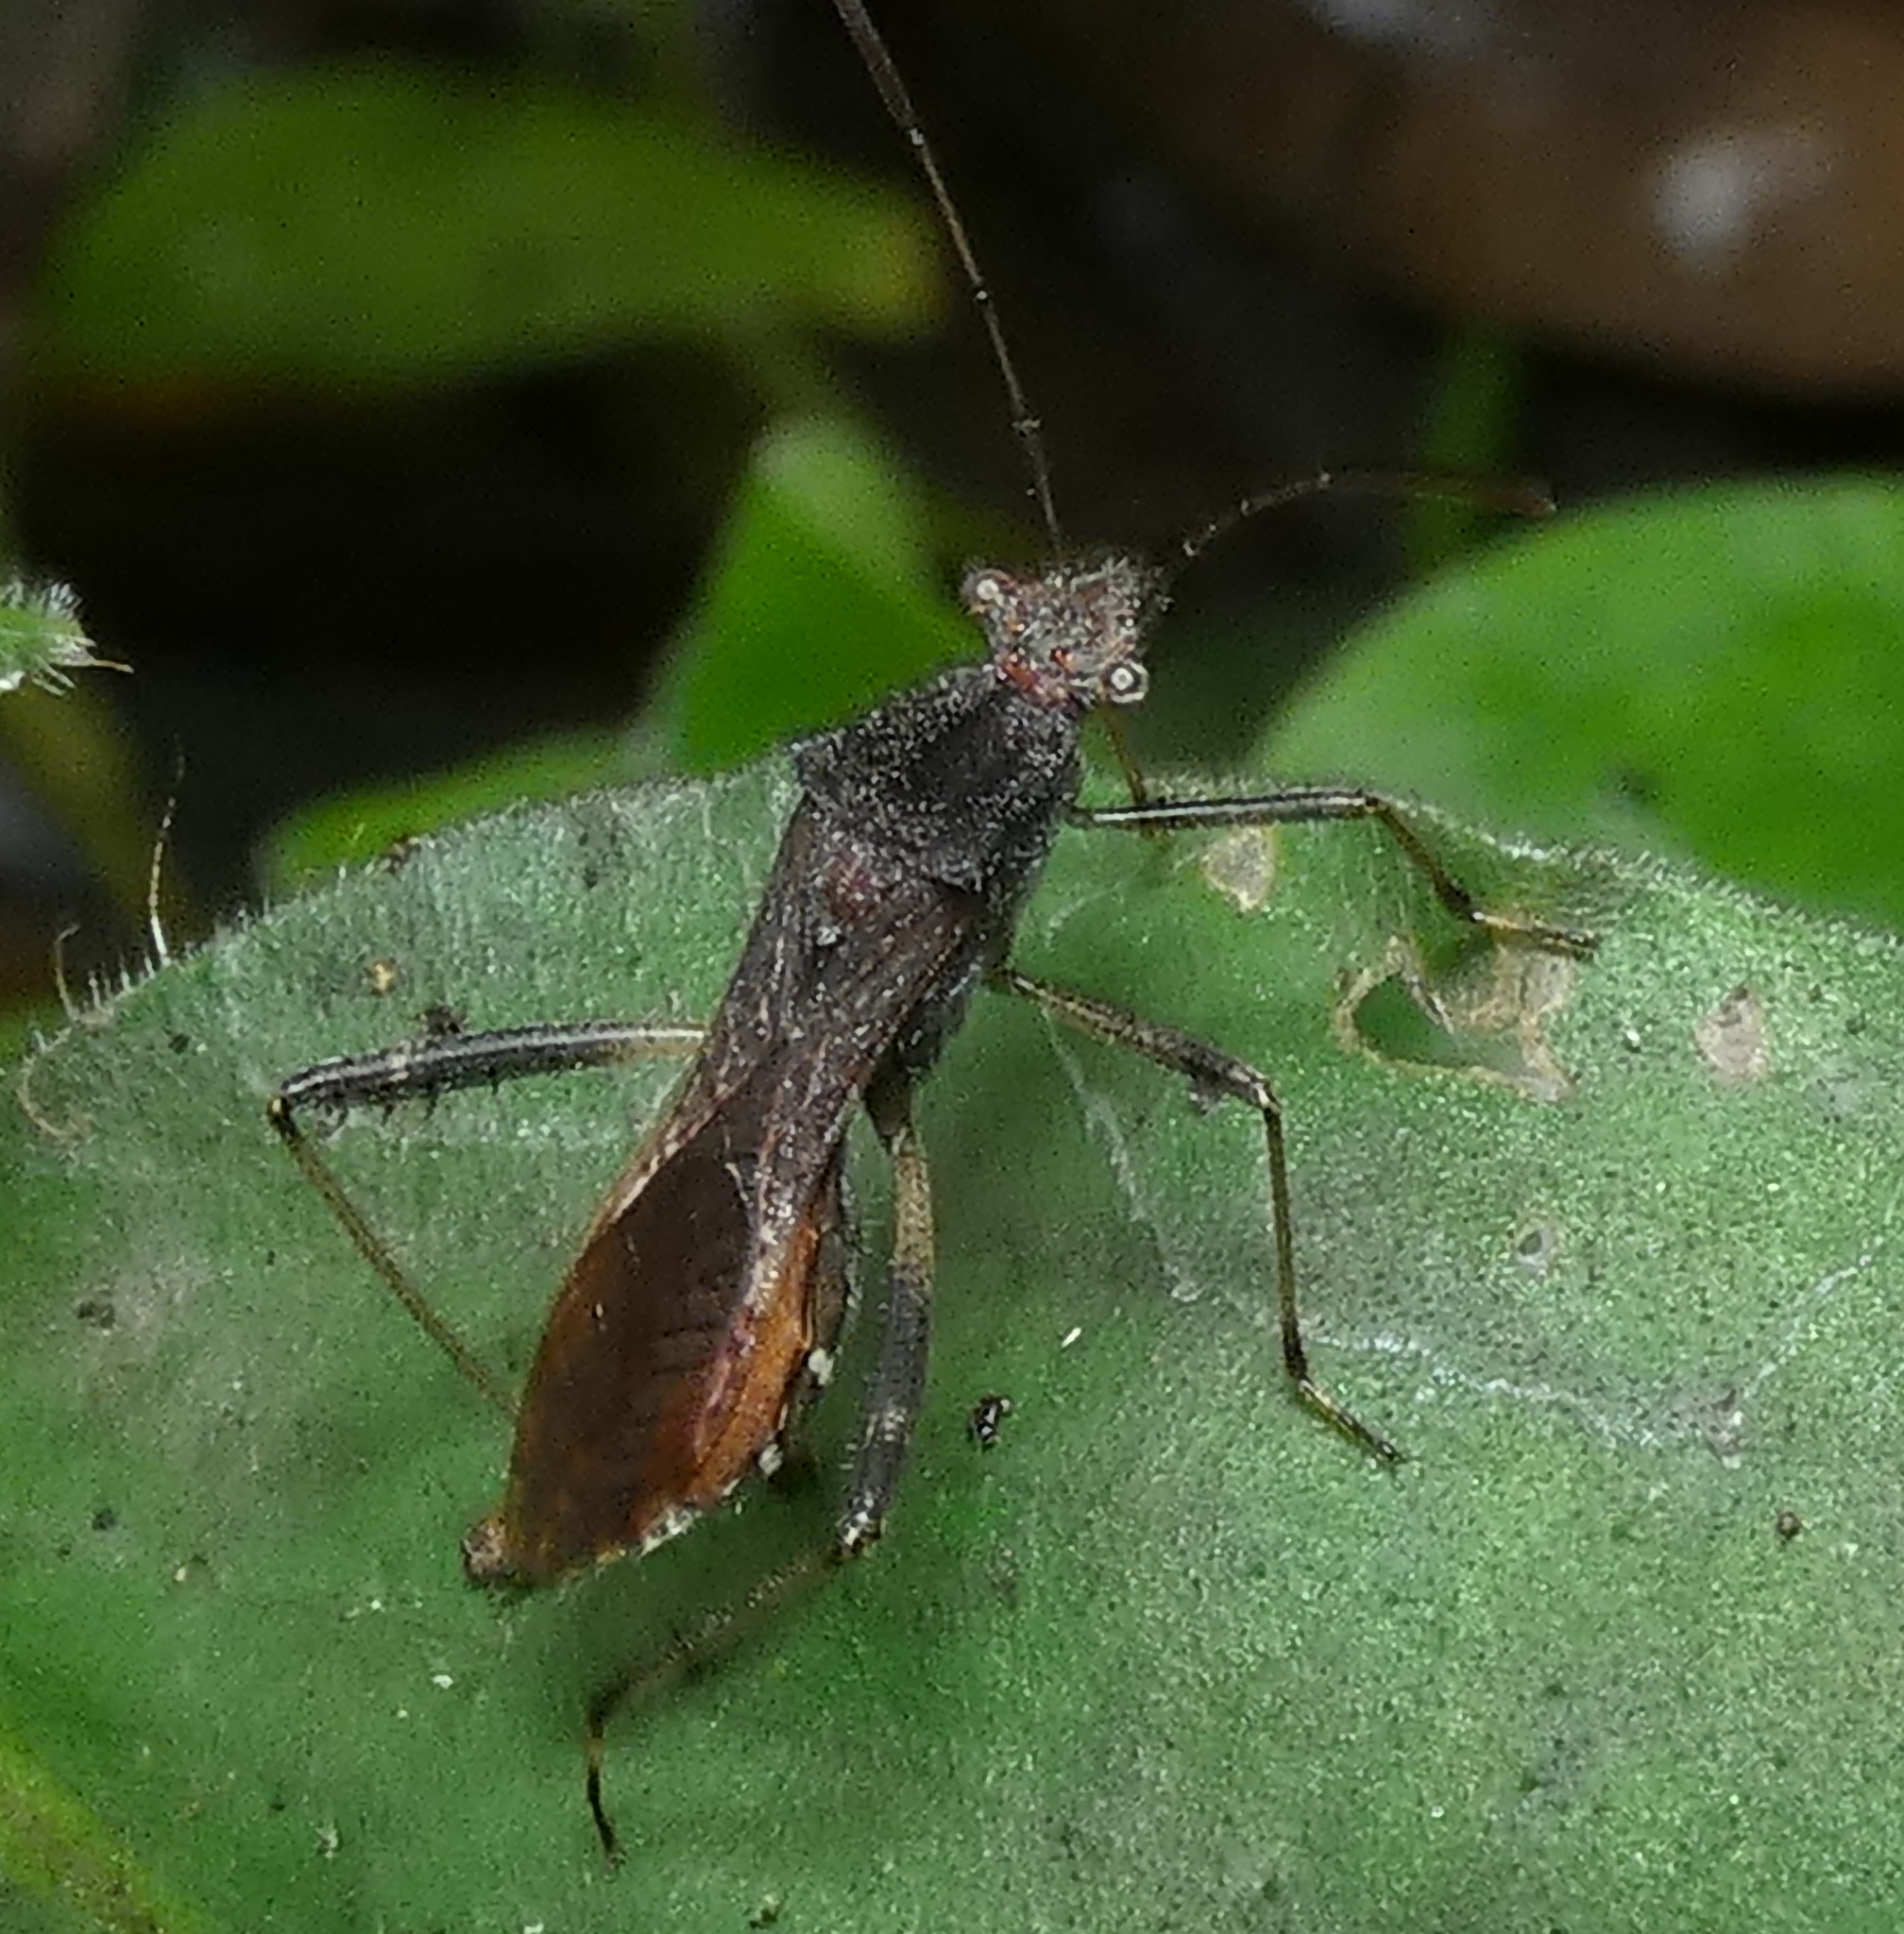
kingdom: Animalia
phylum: Arthropoda
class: Insecta
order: Hemiptera
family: Alydidae
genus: Neomegalotomus
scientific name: Neomegalotomus parvus
